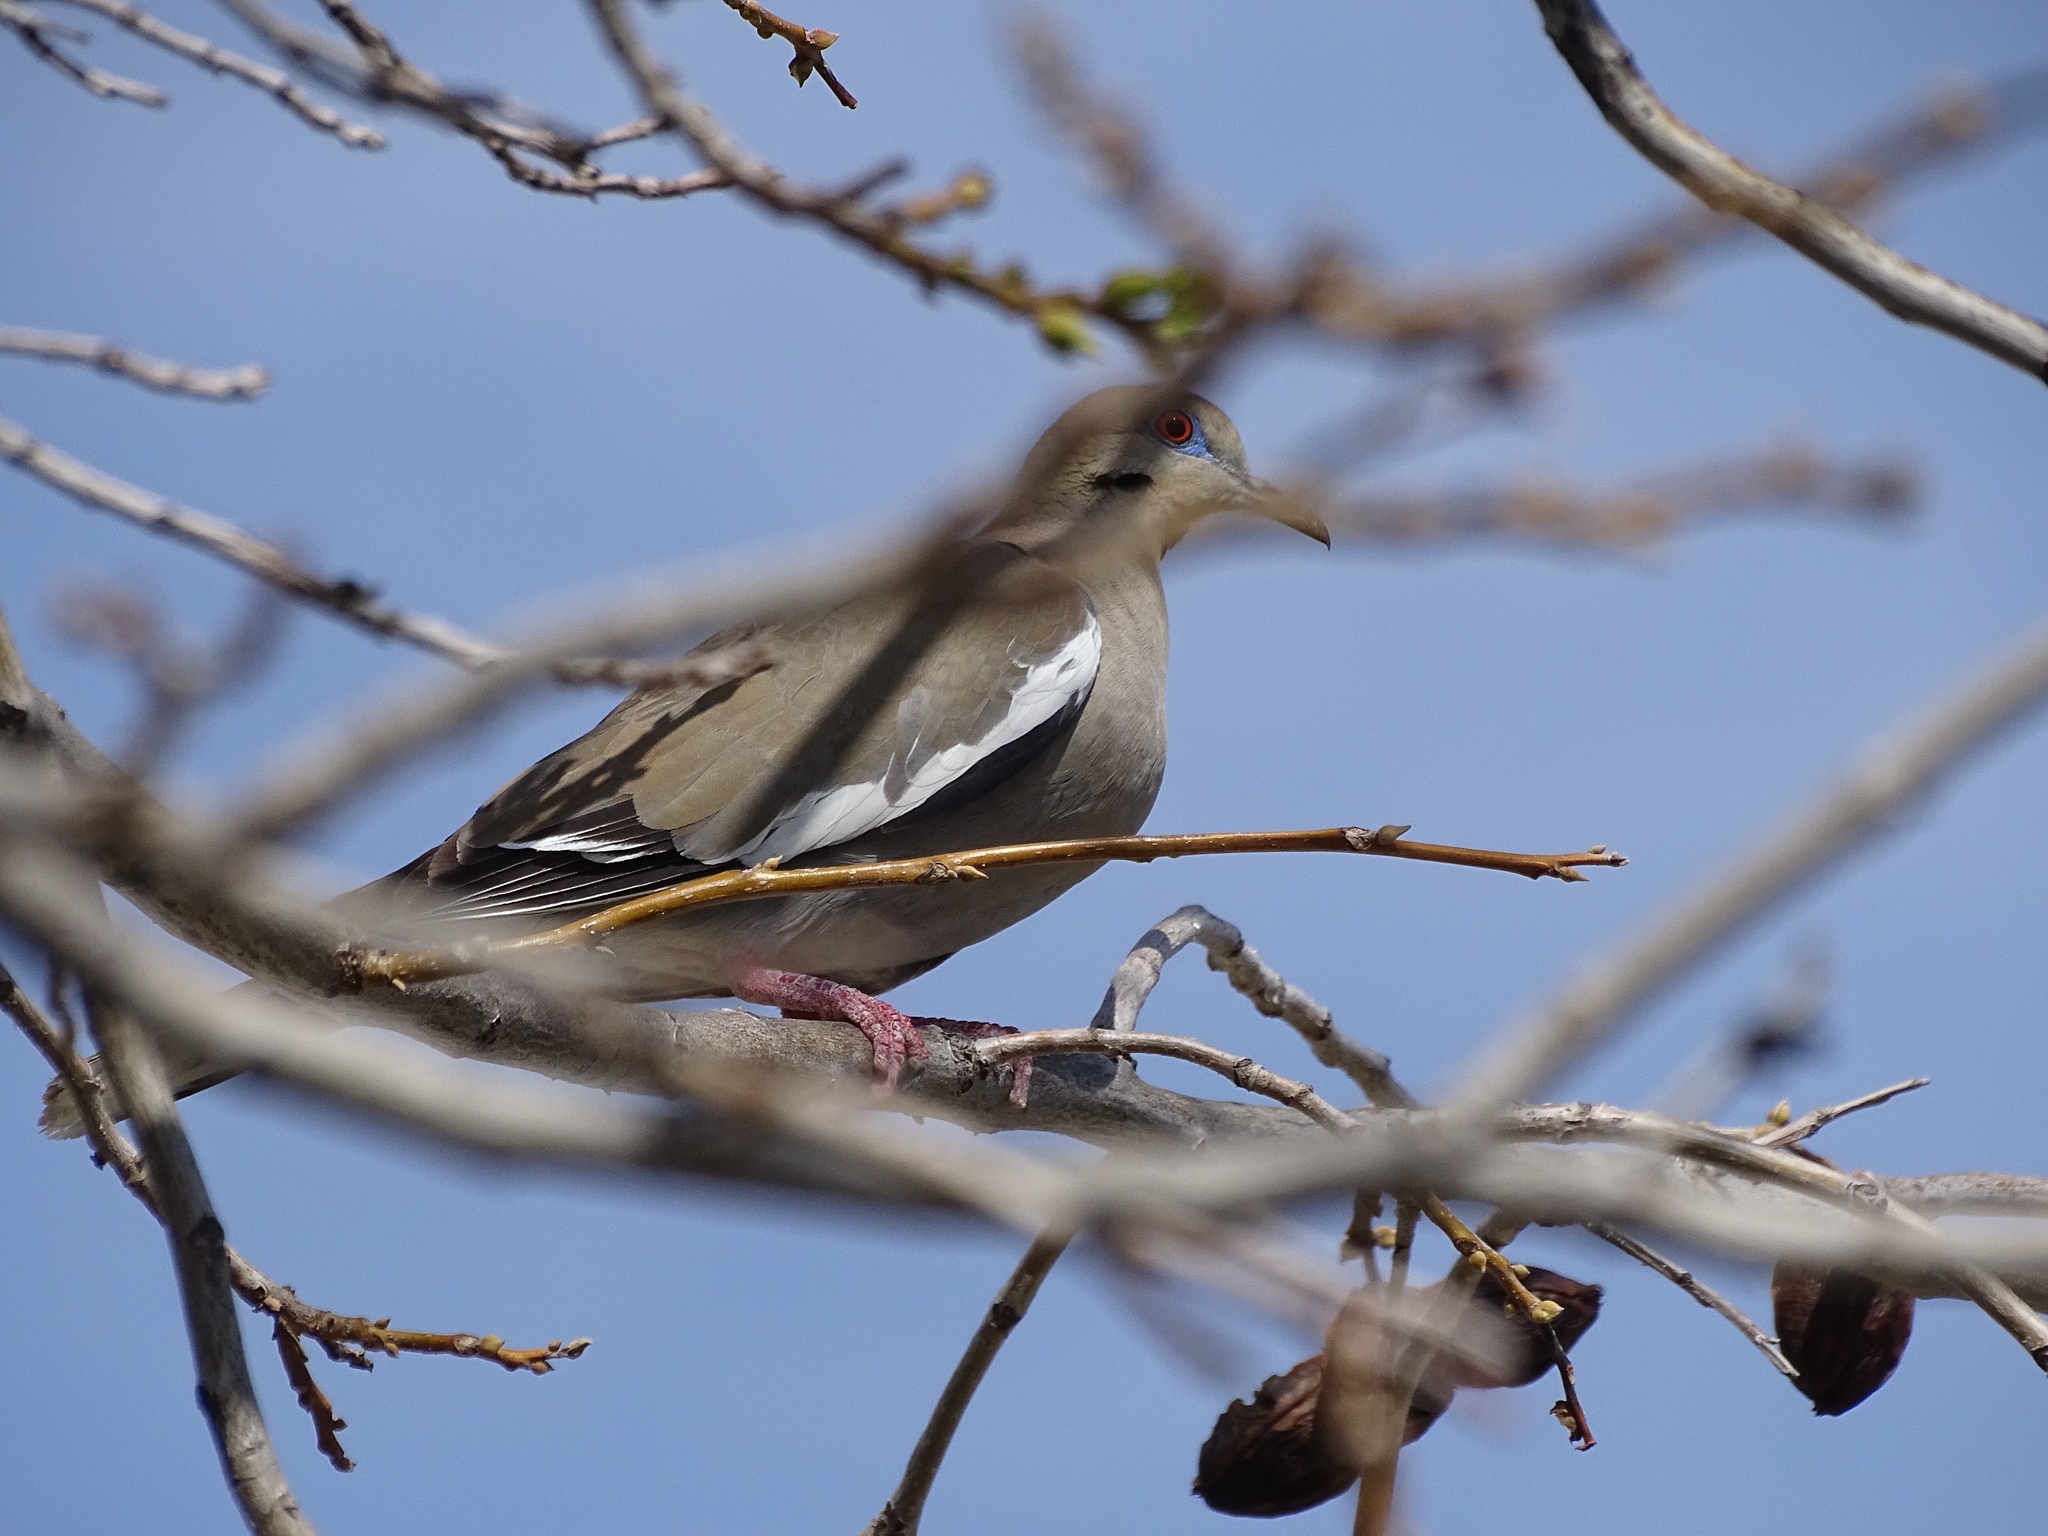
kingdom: Animalia
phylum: Chordata
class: Aves
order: Columbiformes
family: Columbidae
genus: Zenaida
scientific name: Zenaida asiatica
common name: White-winged dove
